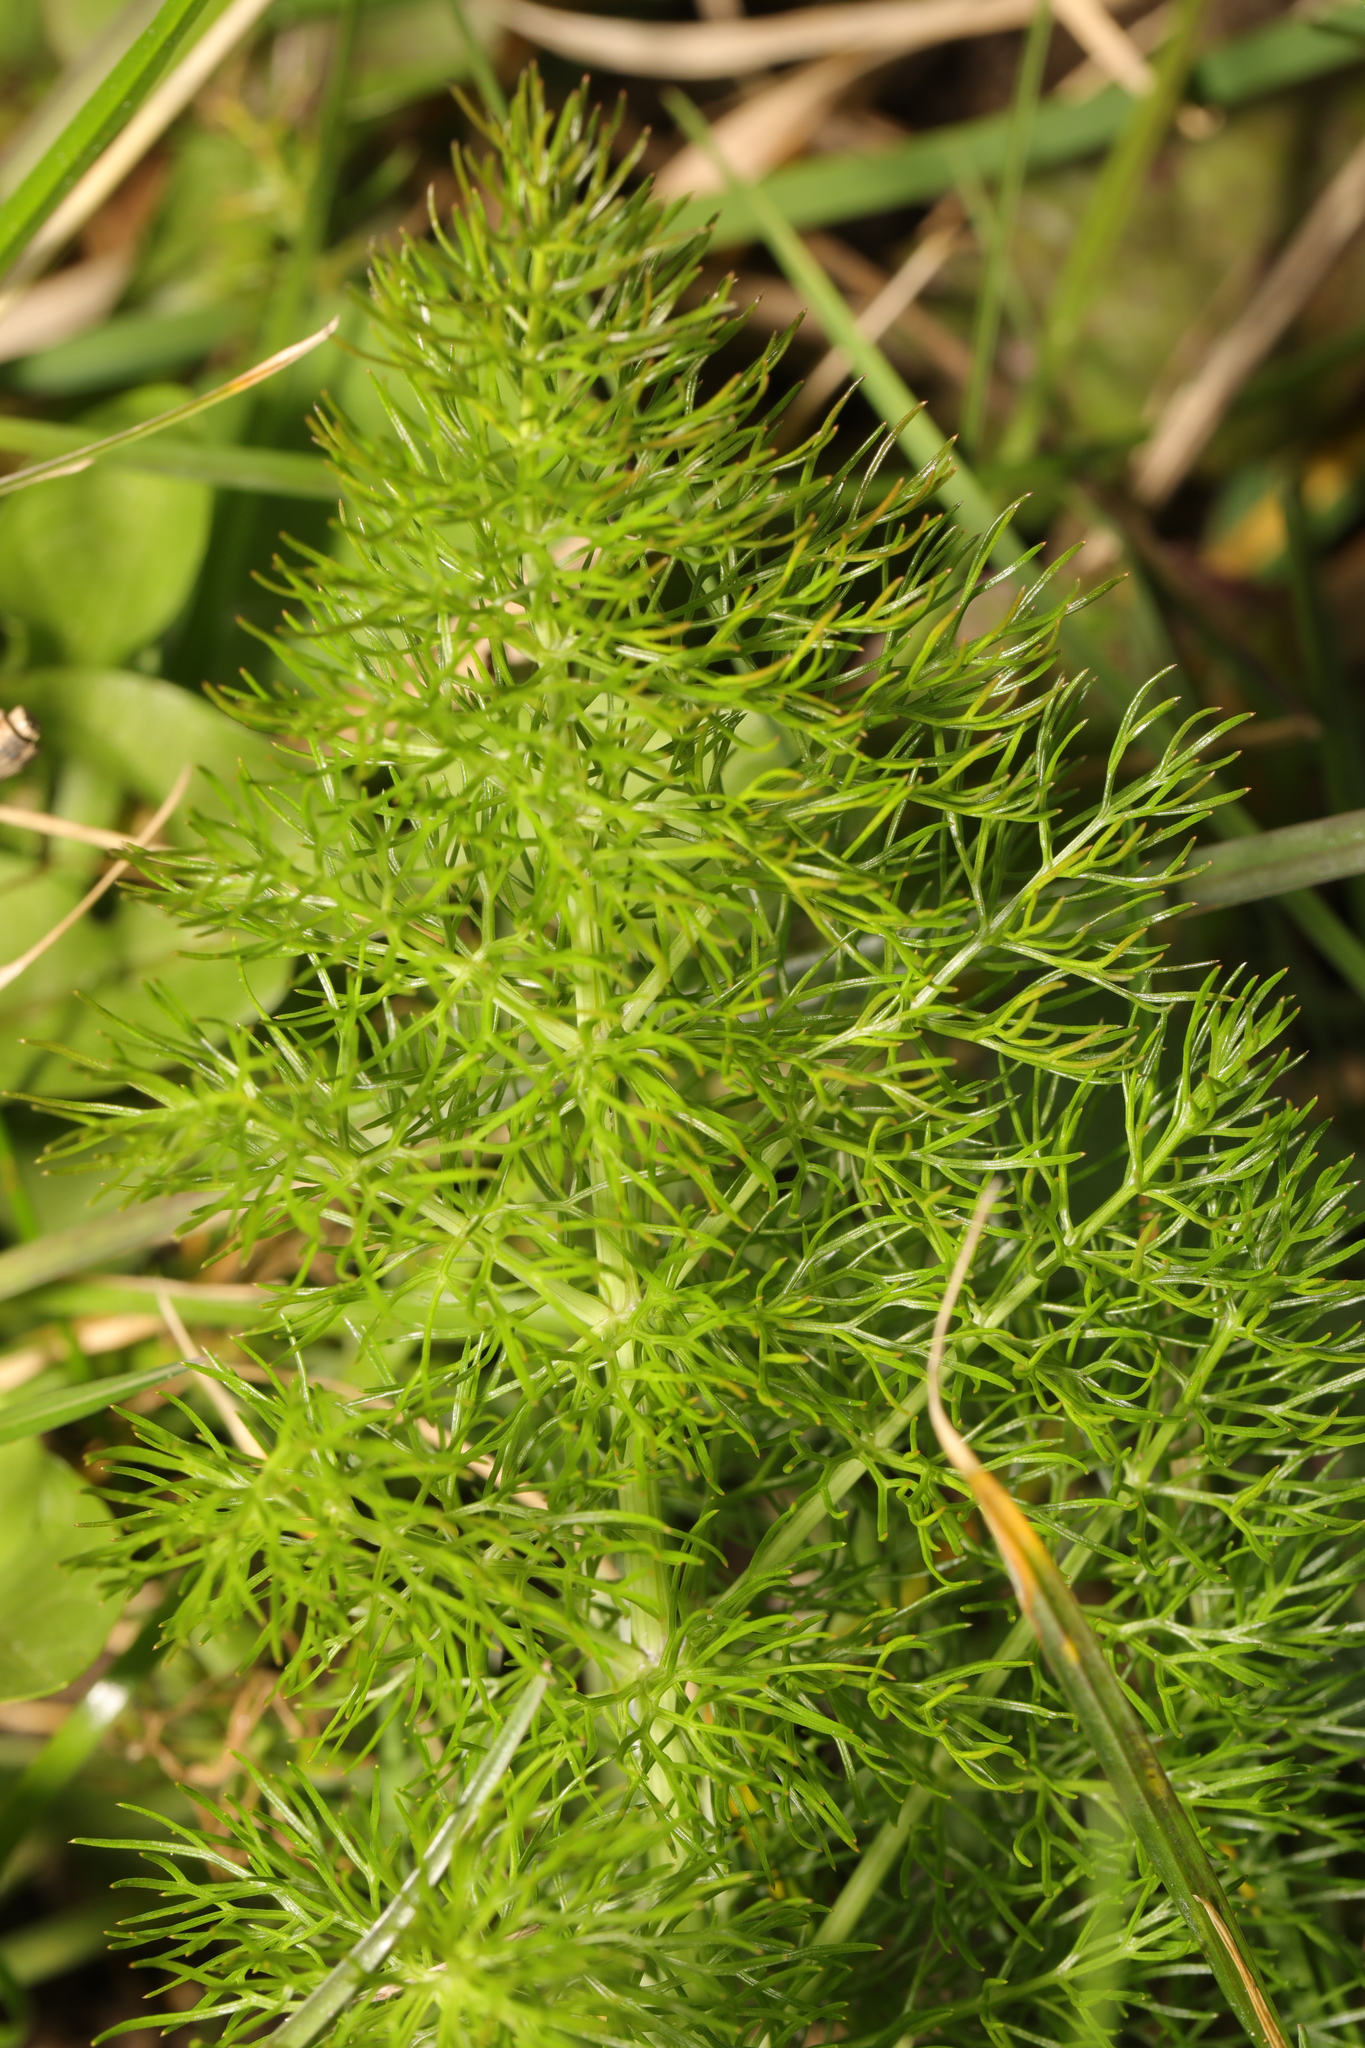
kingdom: Plantae
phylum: Tracheophyta
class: Magnoliopsida
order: Apiales
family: Apiaceae
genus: Foeniculum
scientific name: Foeniculum vulgare
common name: Fennel
